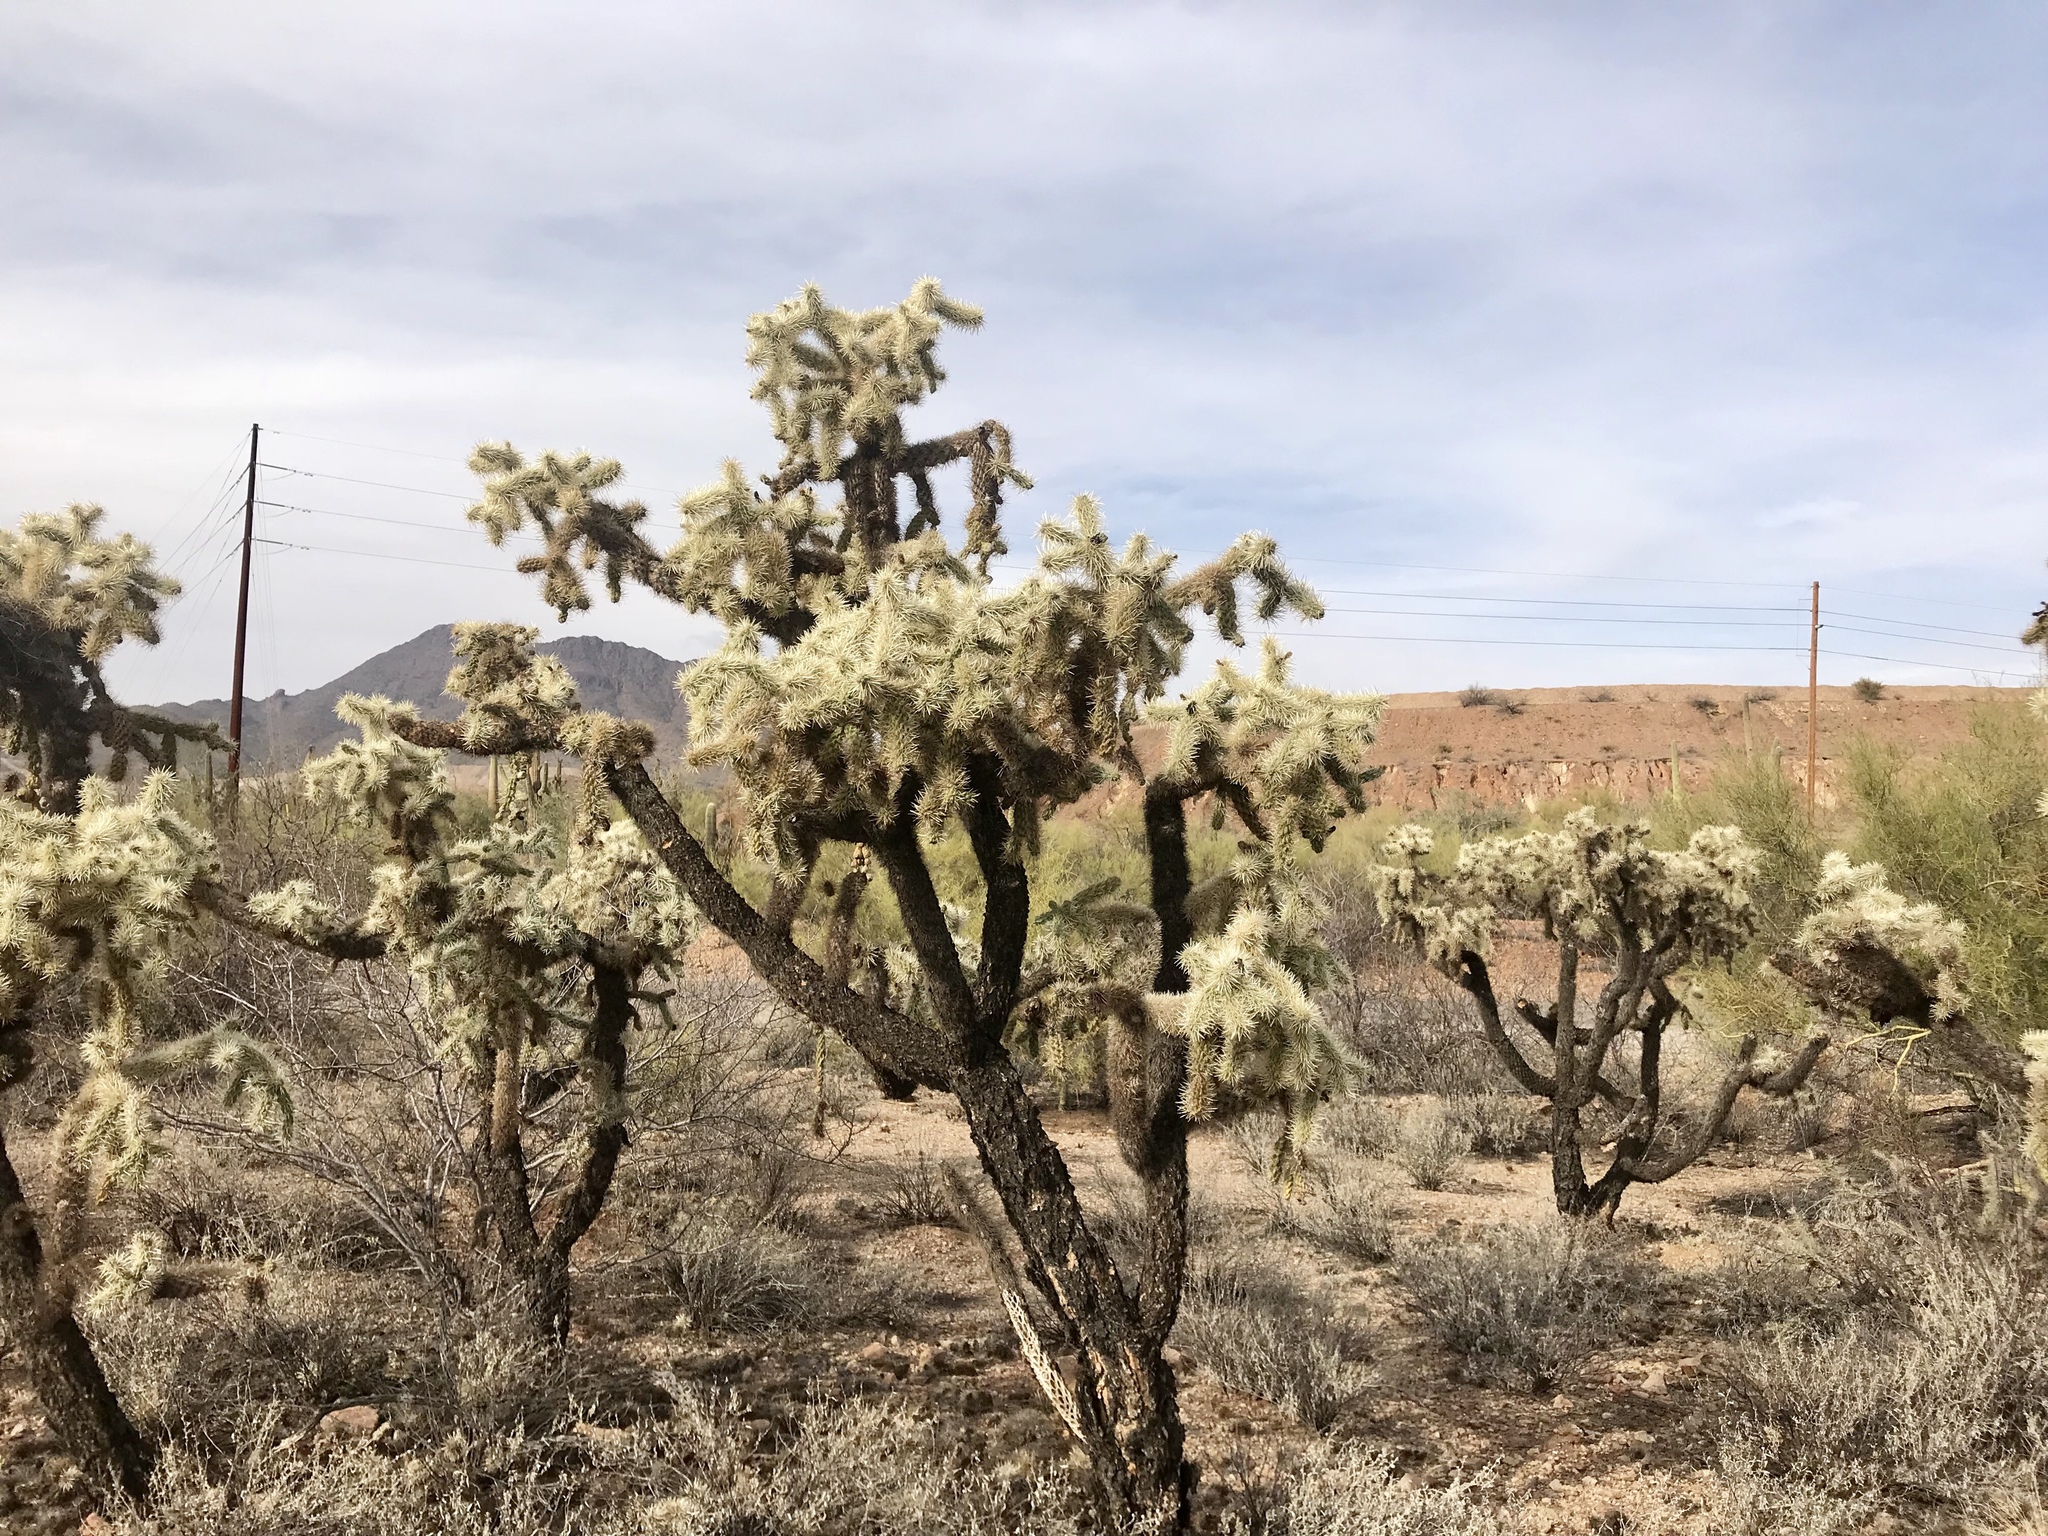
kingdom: Plantae
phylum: Tracheophyta
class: Magnoliopsida
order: Caryophyllales
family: Cactaceae
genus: Cylindropuntia
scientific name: Cylindropuntia fulgida
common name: Jumping cholla
